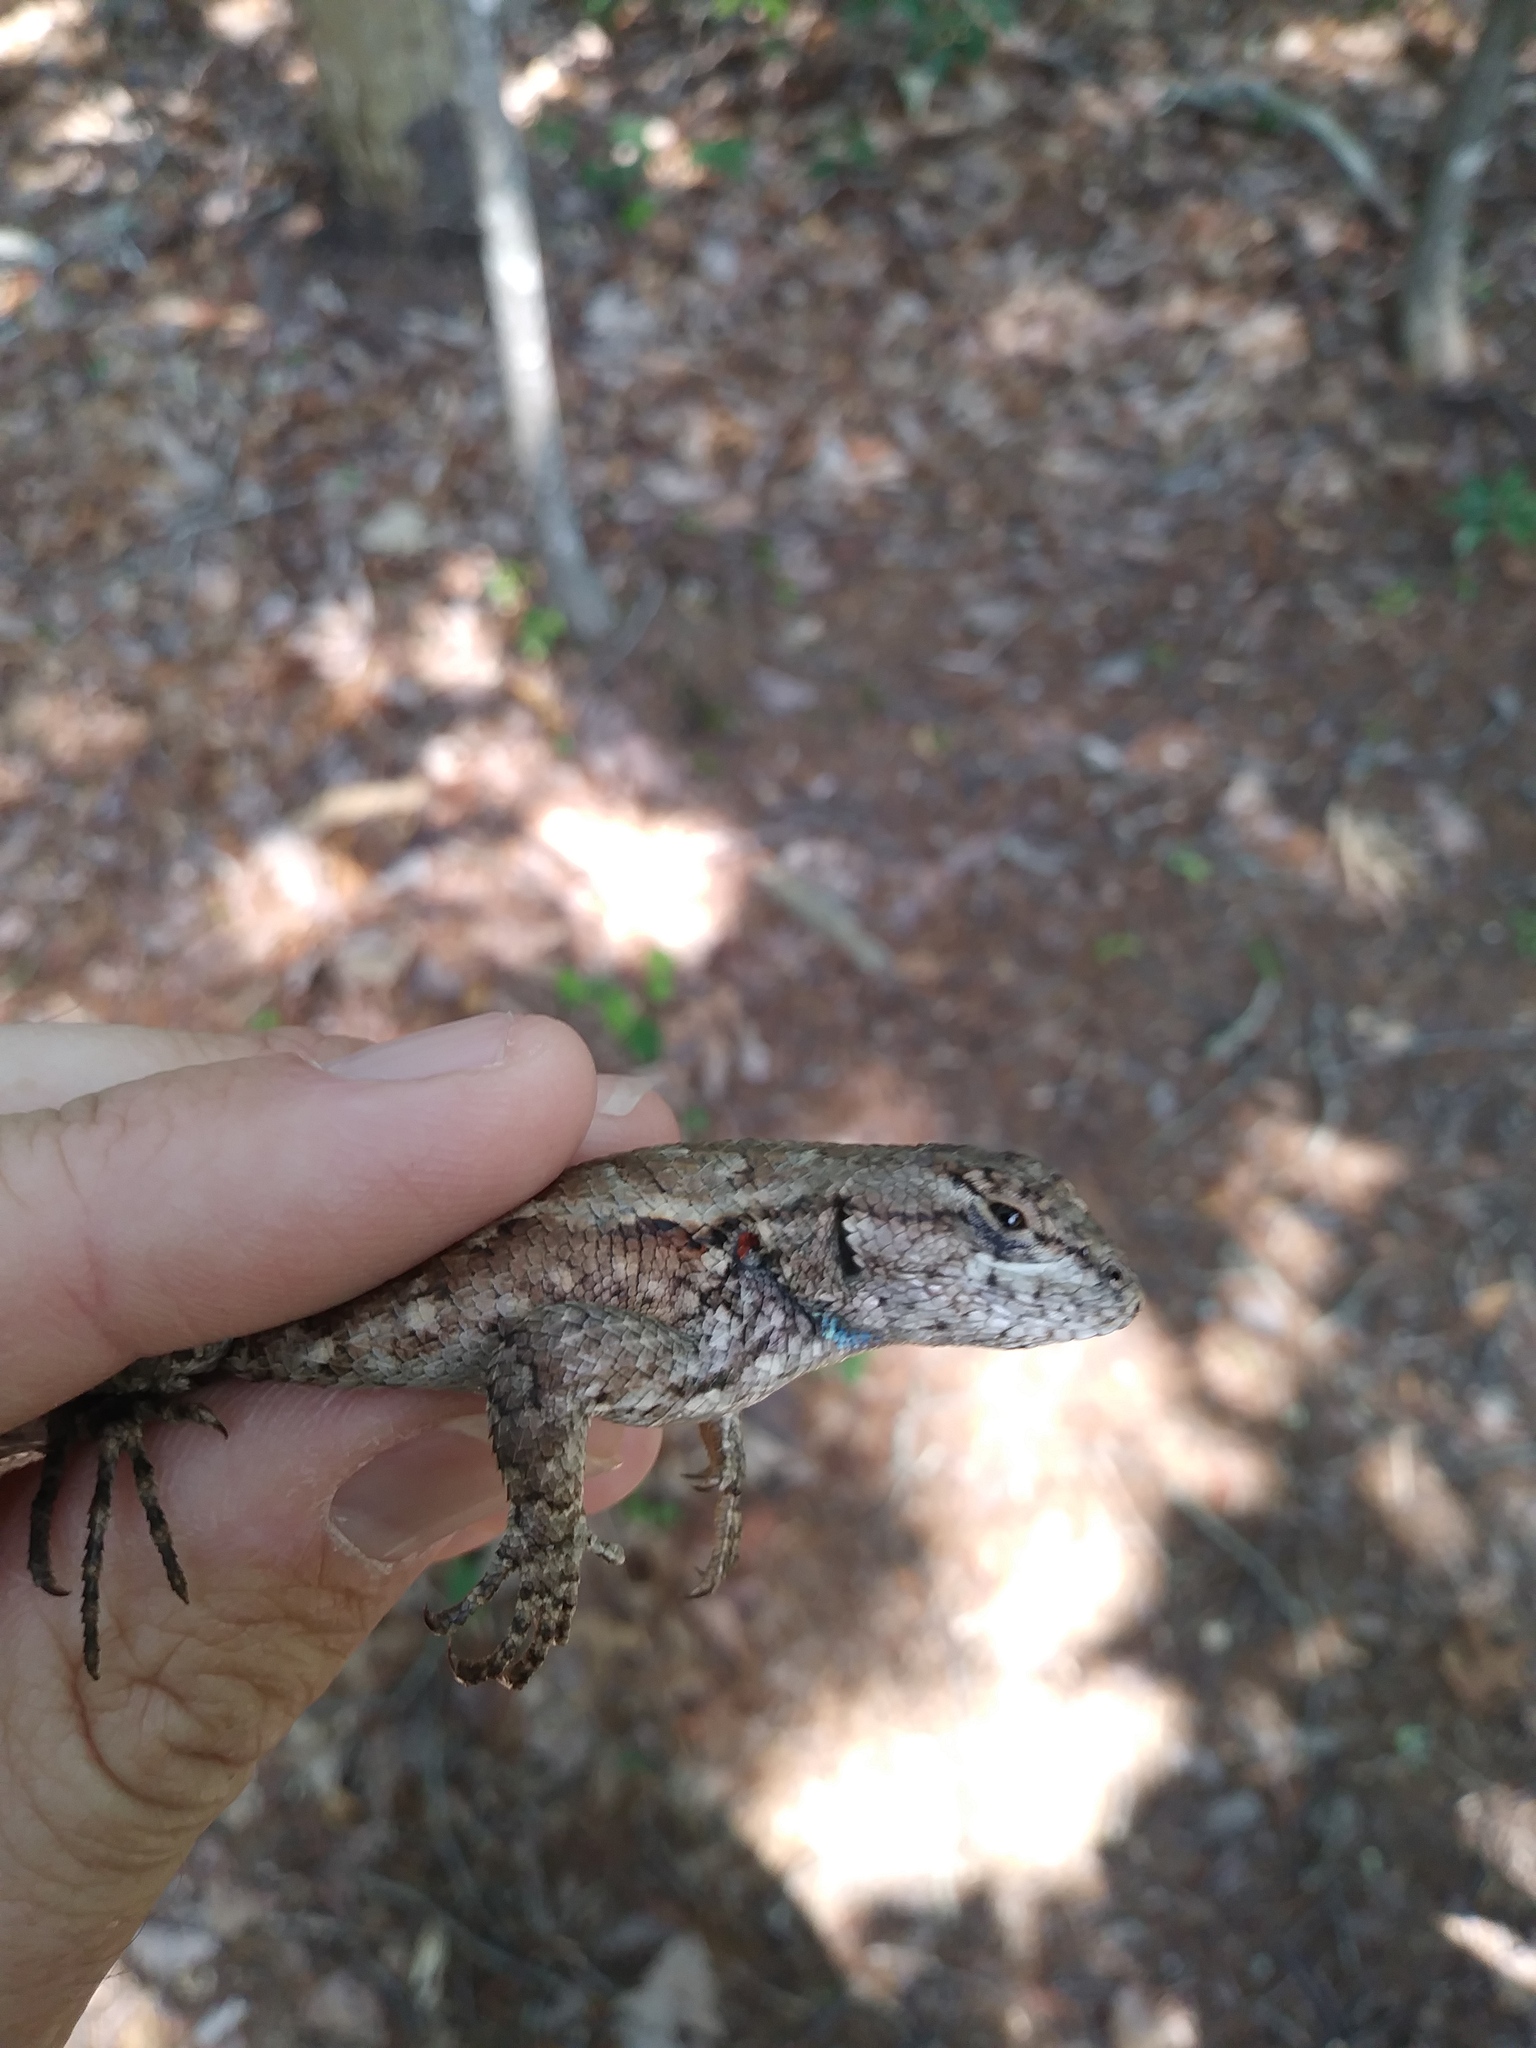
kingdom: Animalia
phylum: Chordata
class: Squamata
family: Phrynosomatidae
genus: Sceloporus
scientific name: Sceloporus undulatus
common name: Eastern fence lizard
